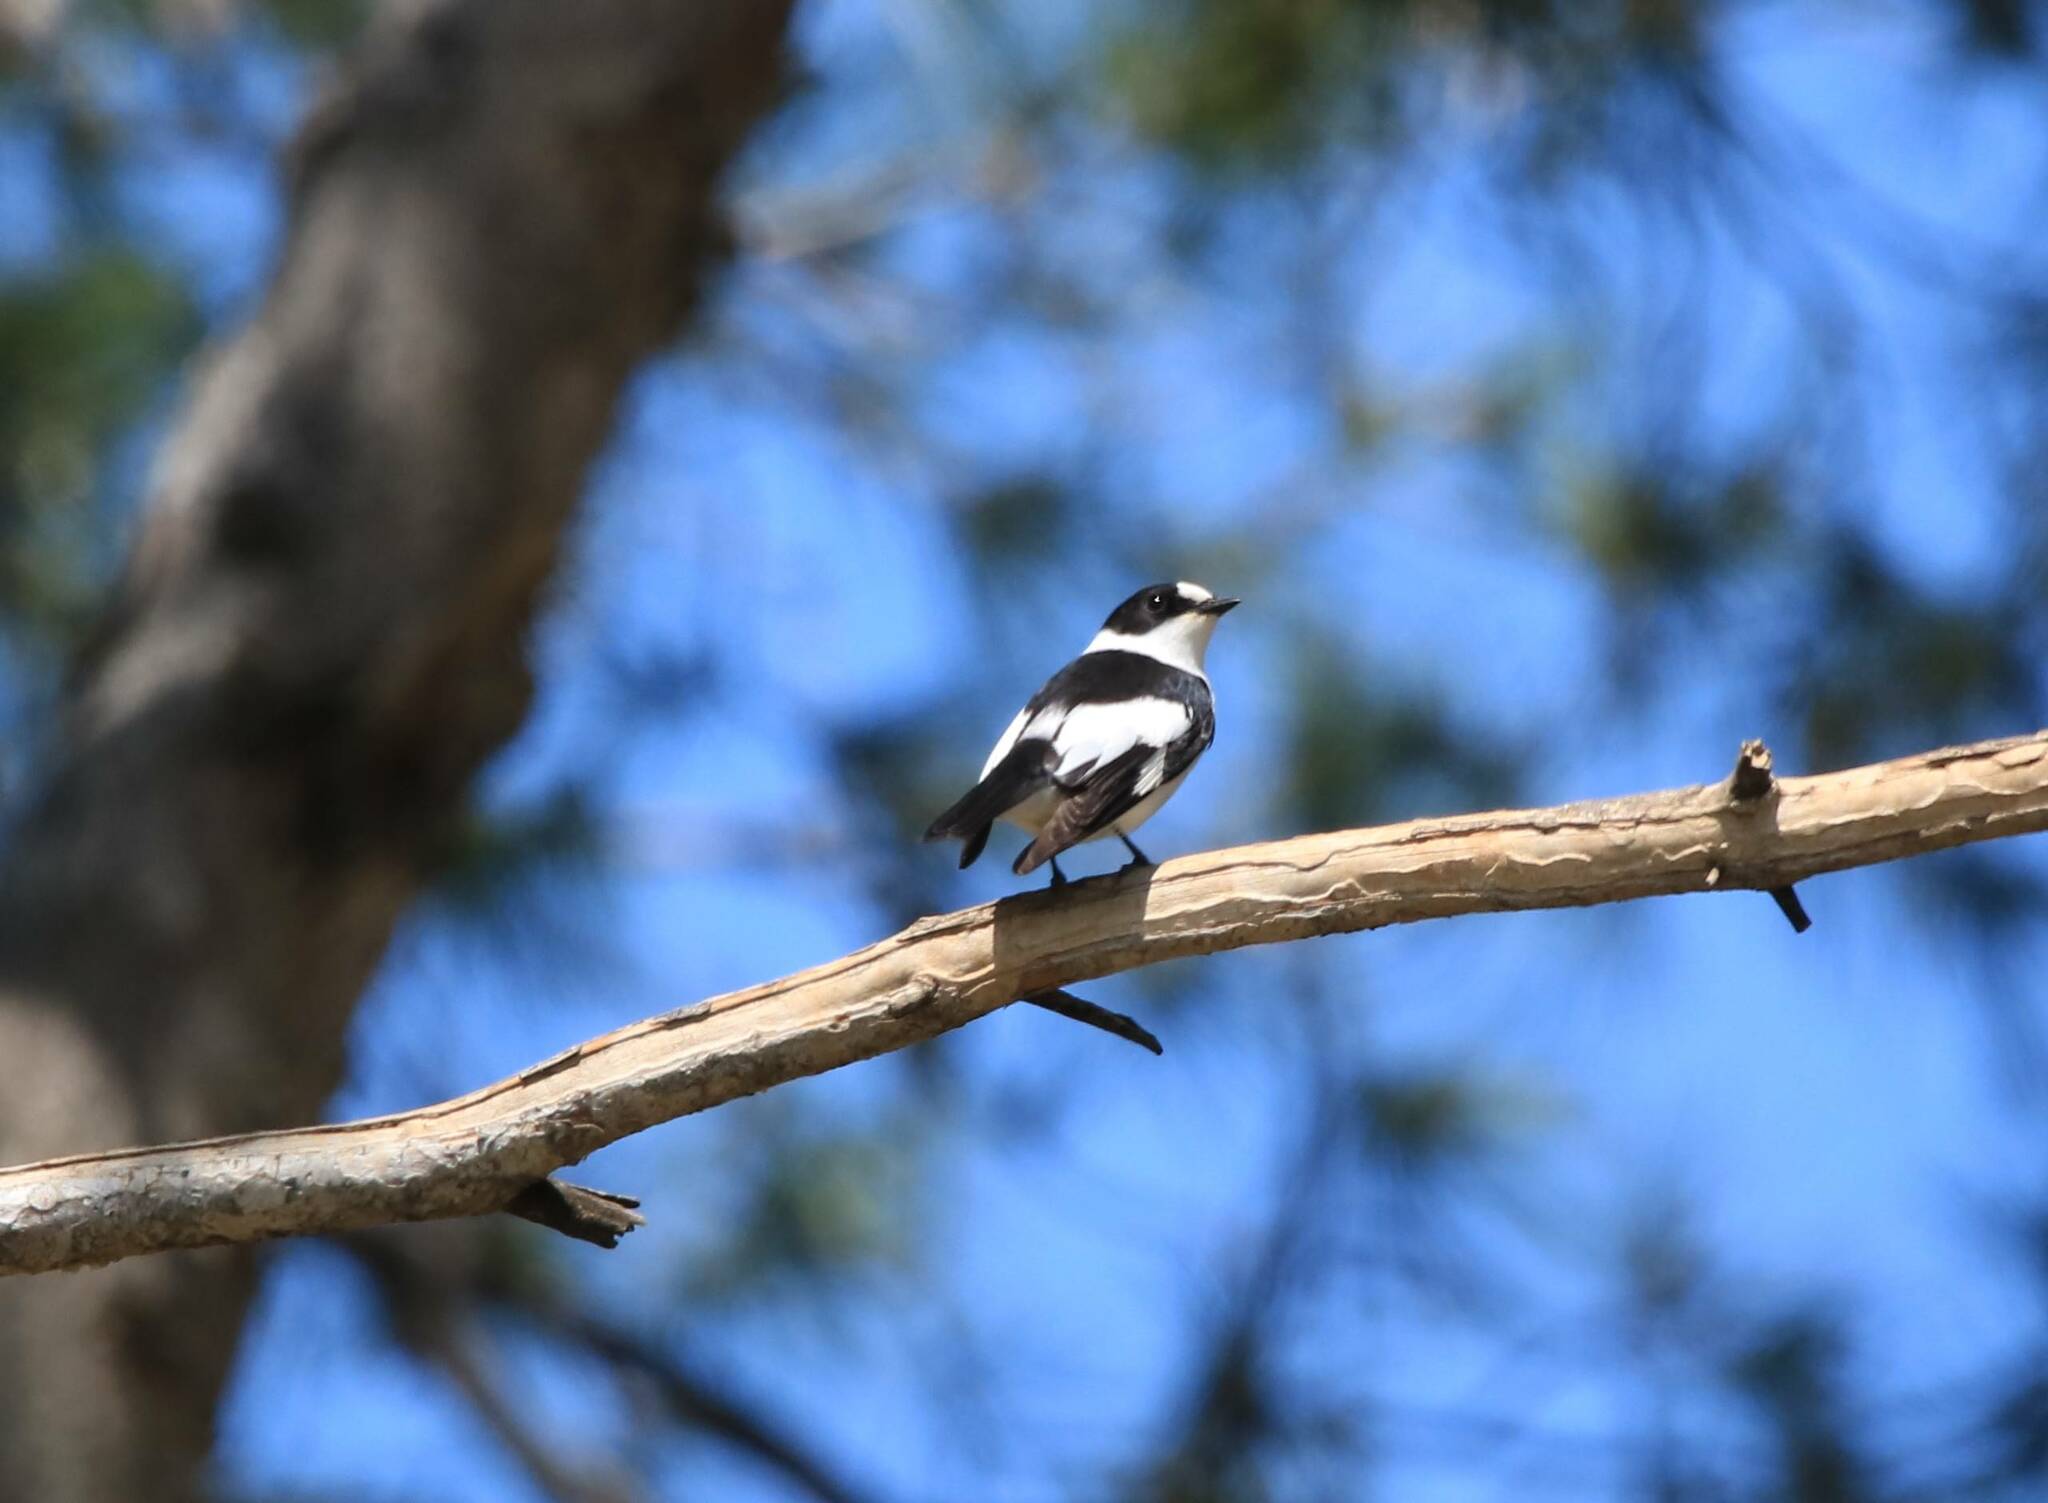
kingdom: Animalia
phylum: Chordata
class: Aves
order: Passeriformes
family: Muscicapidae
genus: Ficedula
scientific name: Ficedula albicollis
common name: Collared flycatcher
